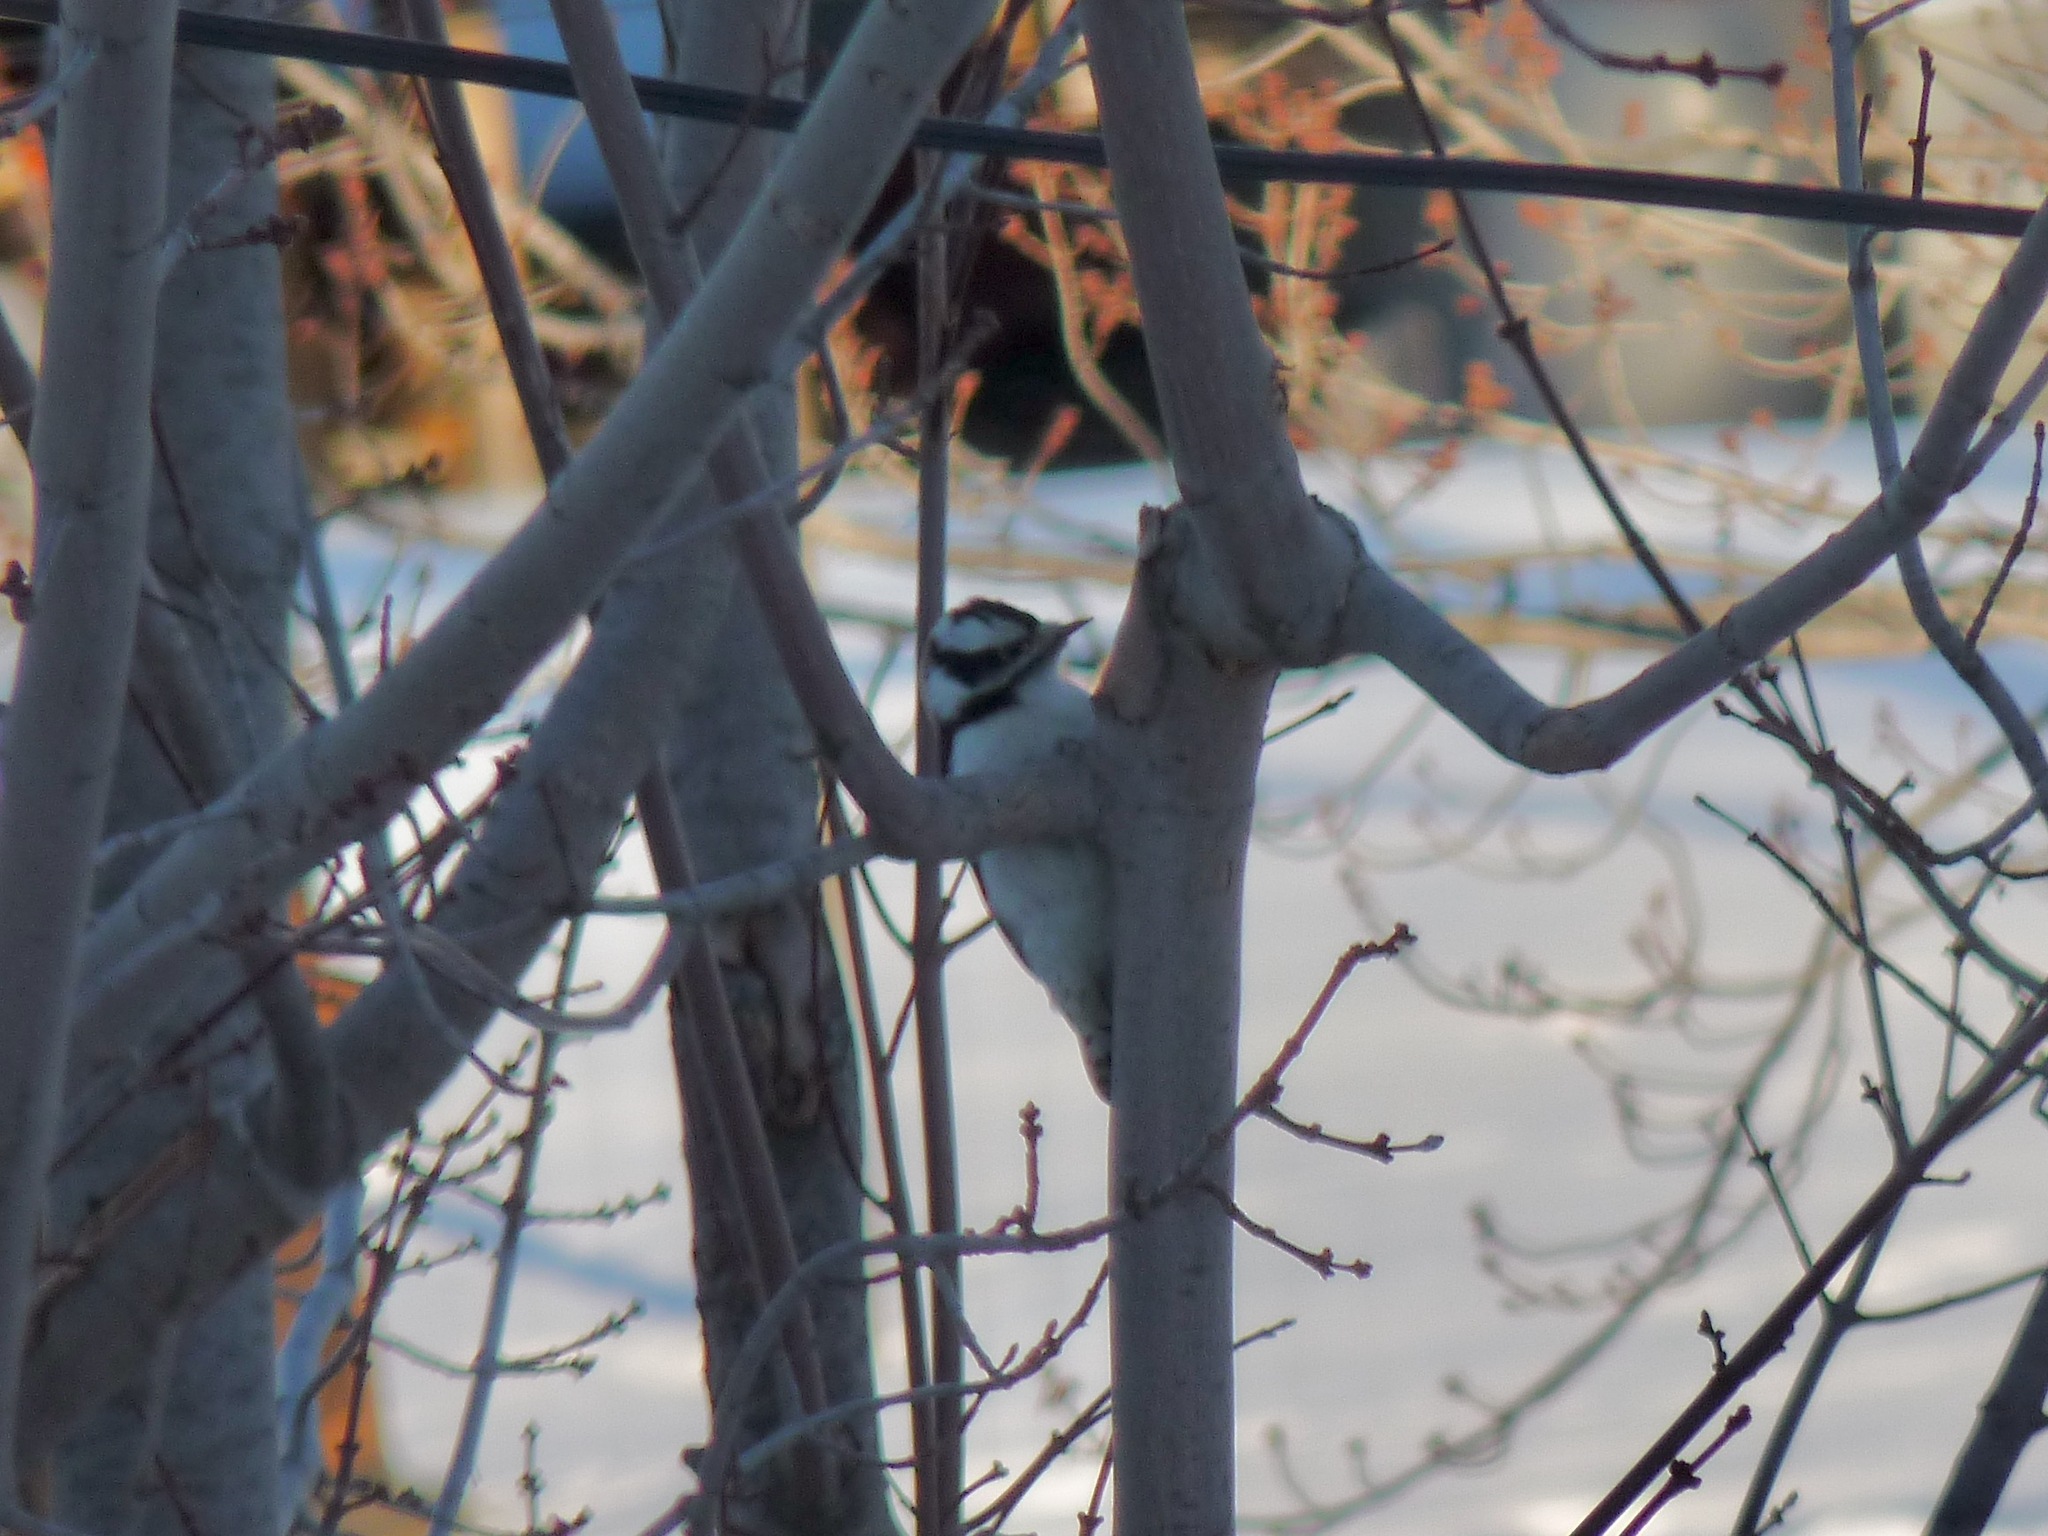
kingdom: Animalia
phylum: Chordata
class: Aves
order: Piciformes
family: Picidae
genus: Dryobates
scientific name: Dryobates pubescens
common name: Downy woodpecker
